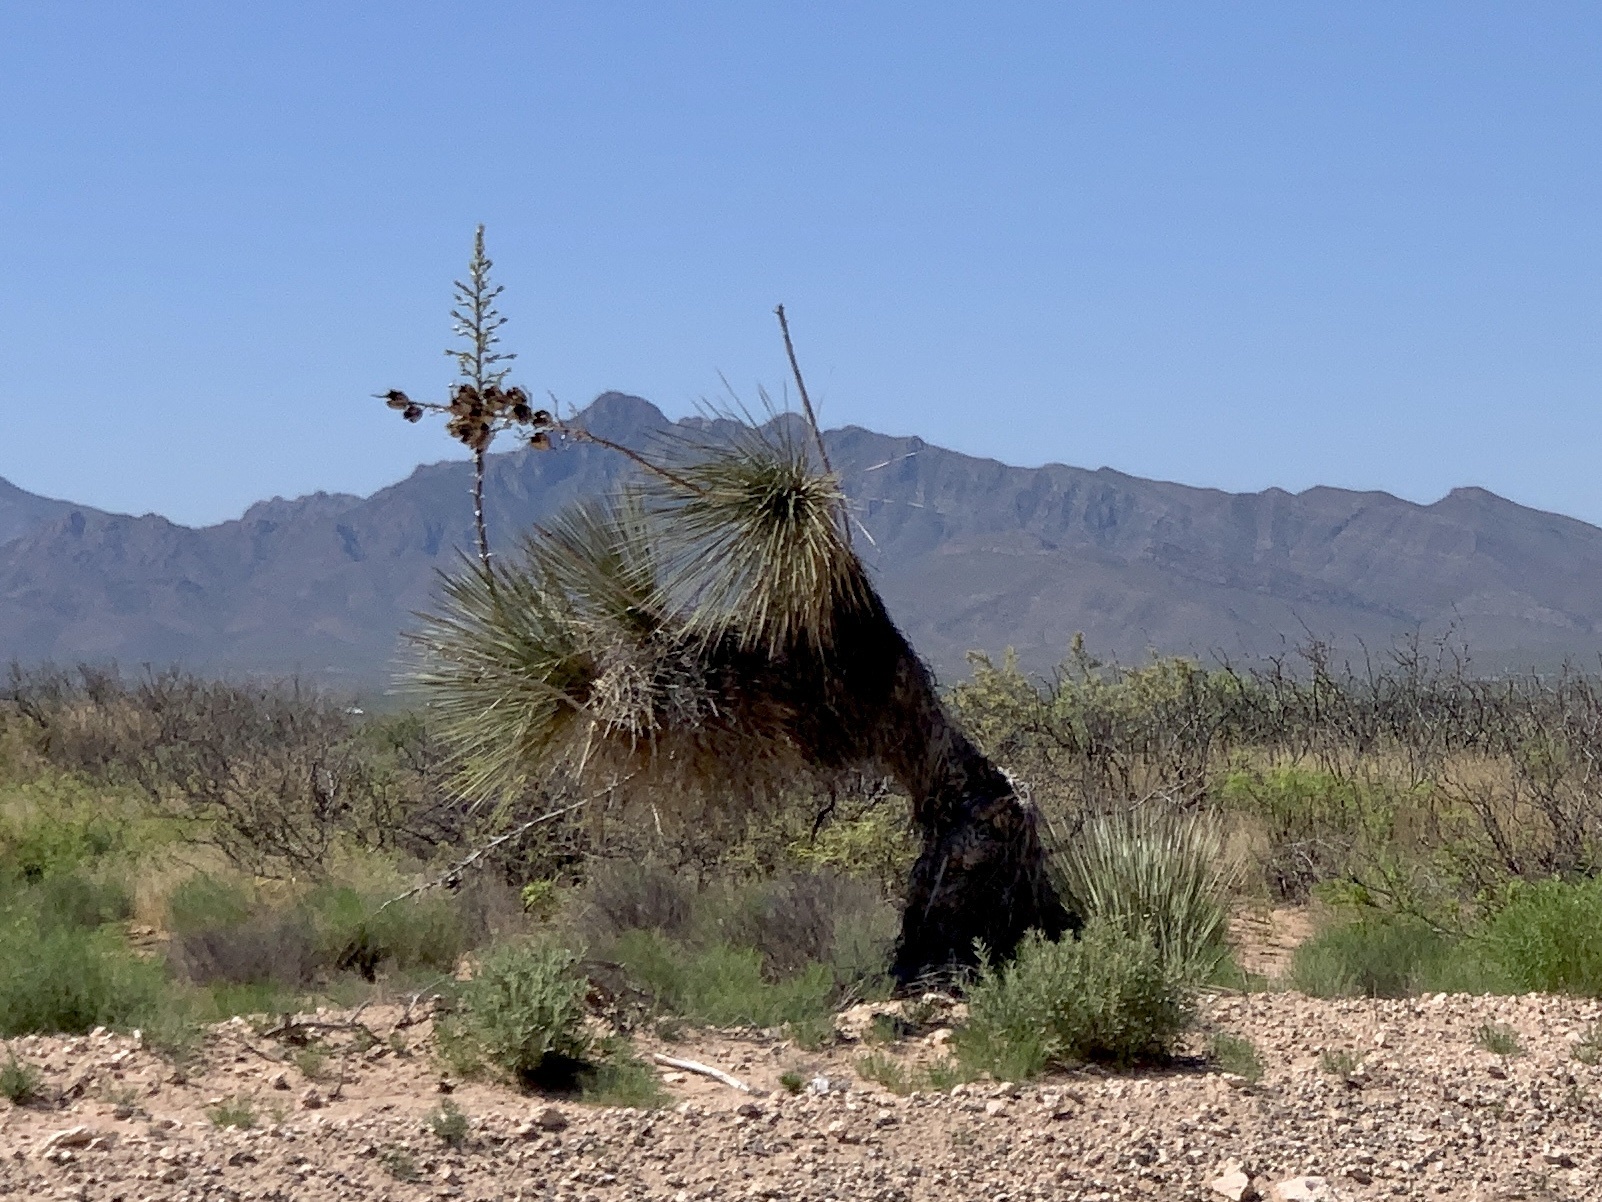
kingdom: Plantae
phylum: Tracheophyta
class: Liliopsida
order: Asparagales
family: Asparagaceae
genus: Yucca
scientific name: Yucca elata
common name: Palmella
